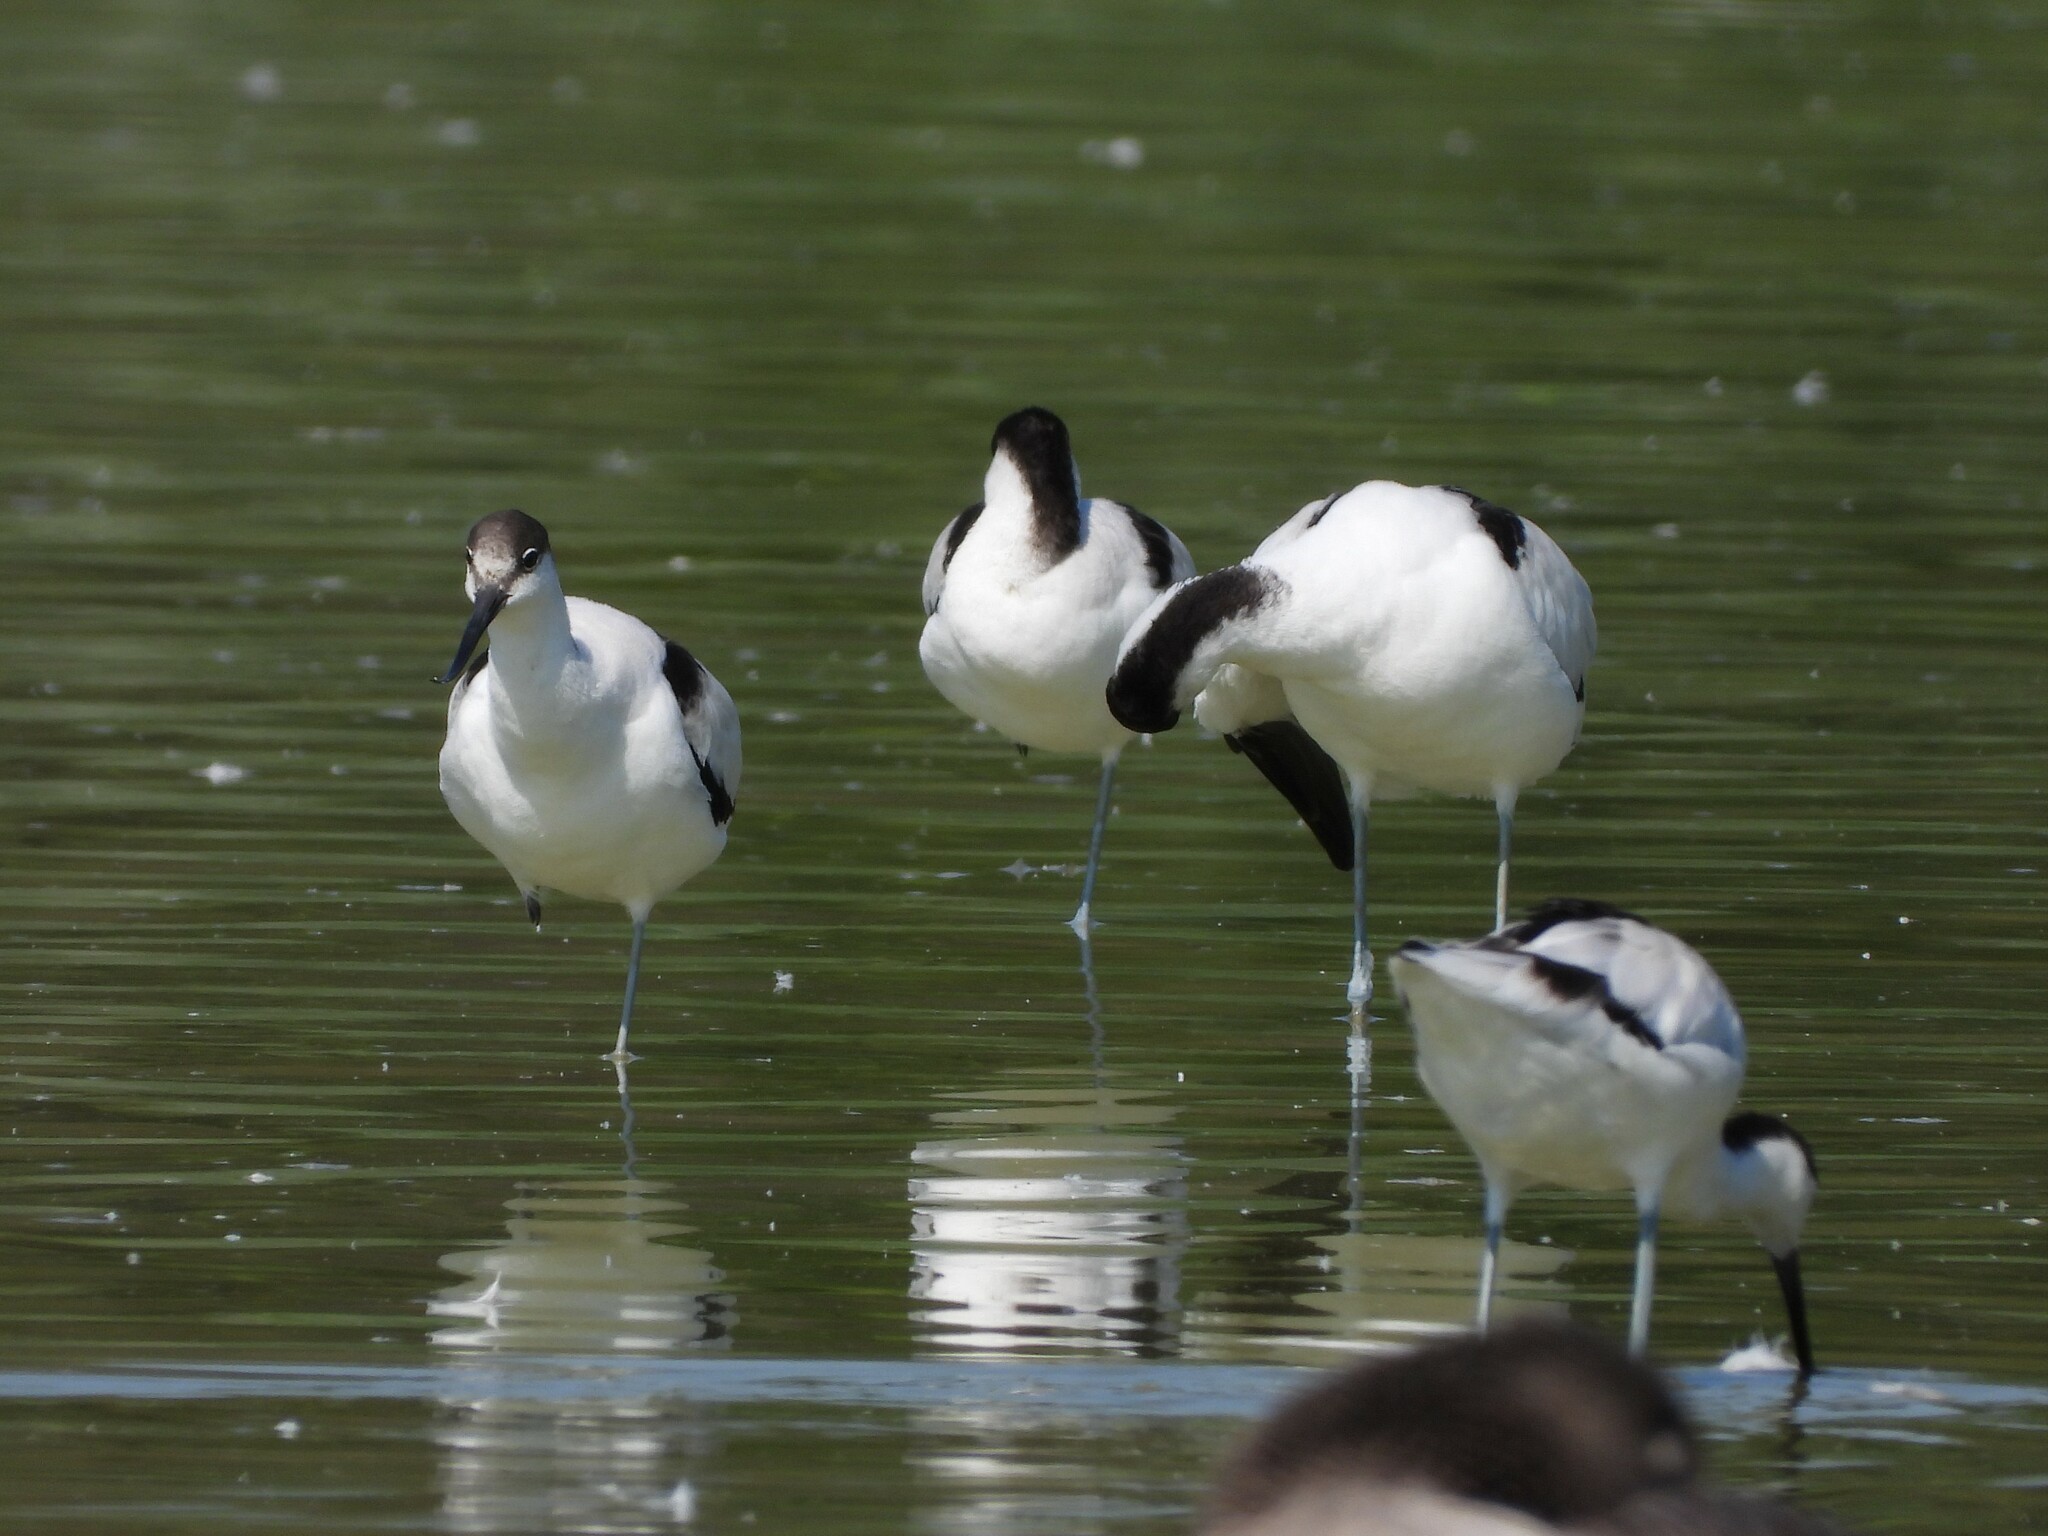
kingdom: Animalia
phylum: Chordata
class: Aves
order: Charadriiformes
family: Recurvirostridae
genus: Recurvirostra
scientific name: Recurvirostra avosetta
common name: Pied avocet
